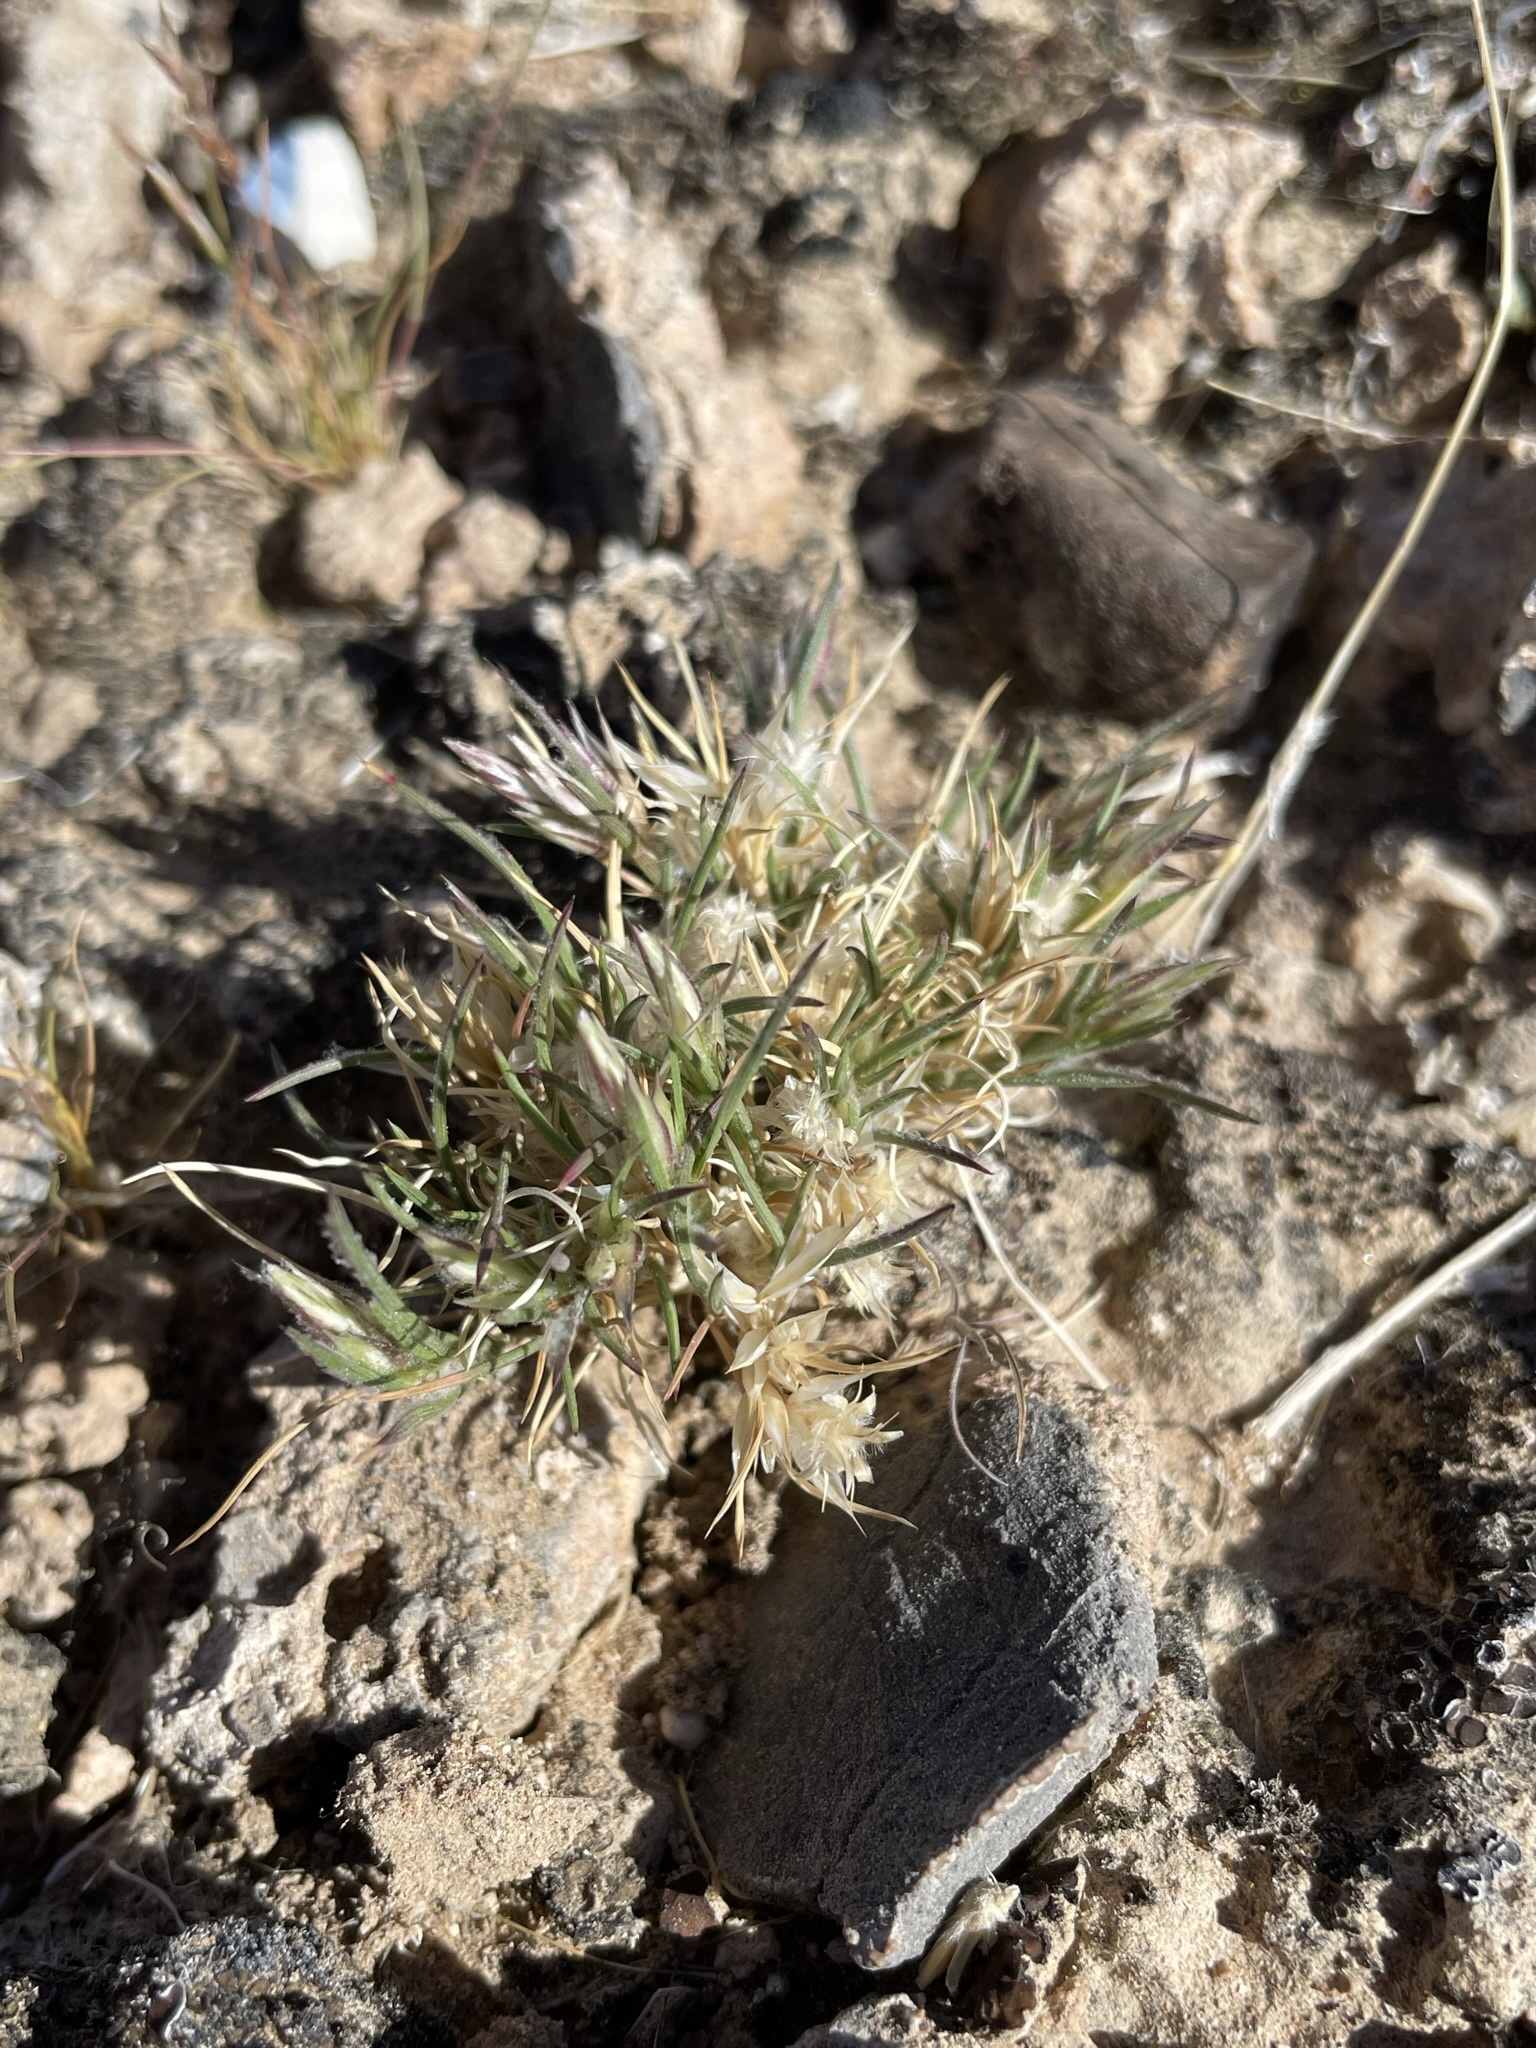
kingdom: Plantae
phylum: Tracheophyta
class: Liliopsida
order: Poales
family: Poaceae
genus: Dasyochloa
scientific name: Dasyochloa pulchella
